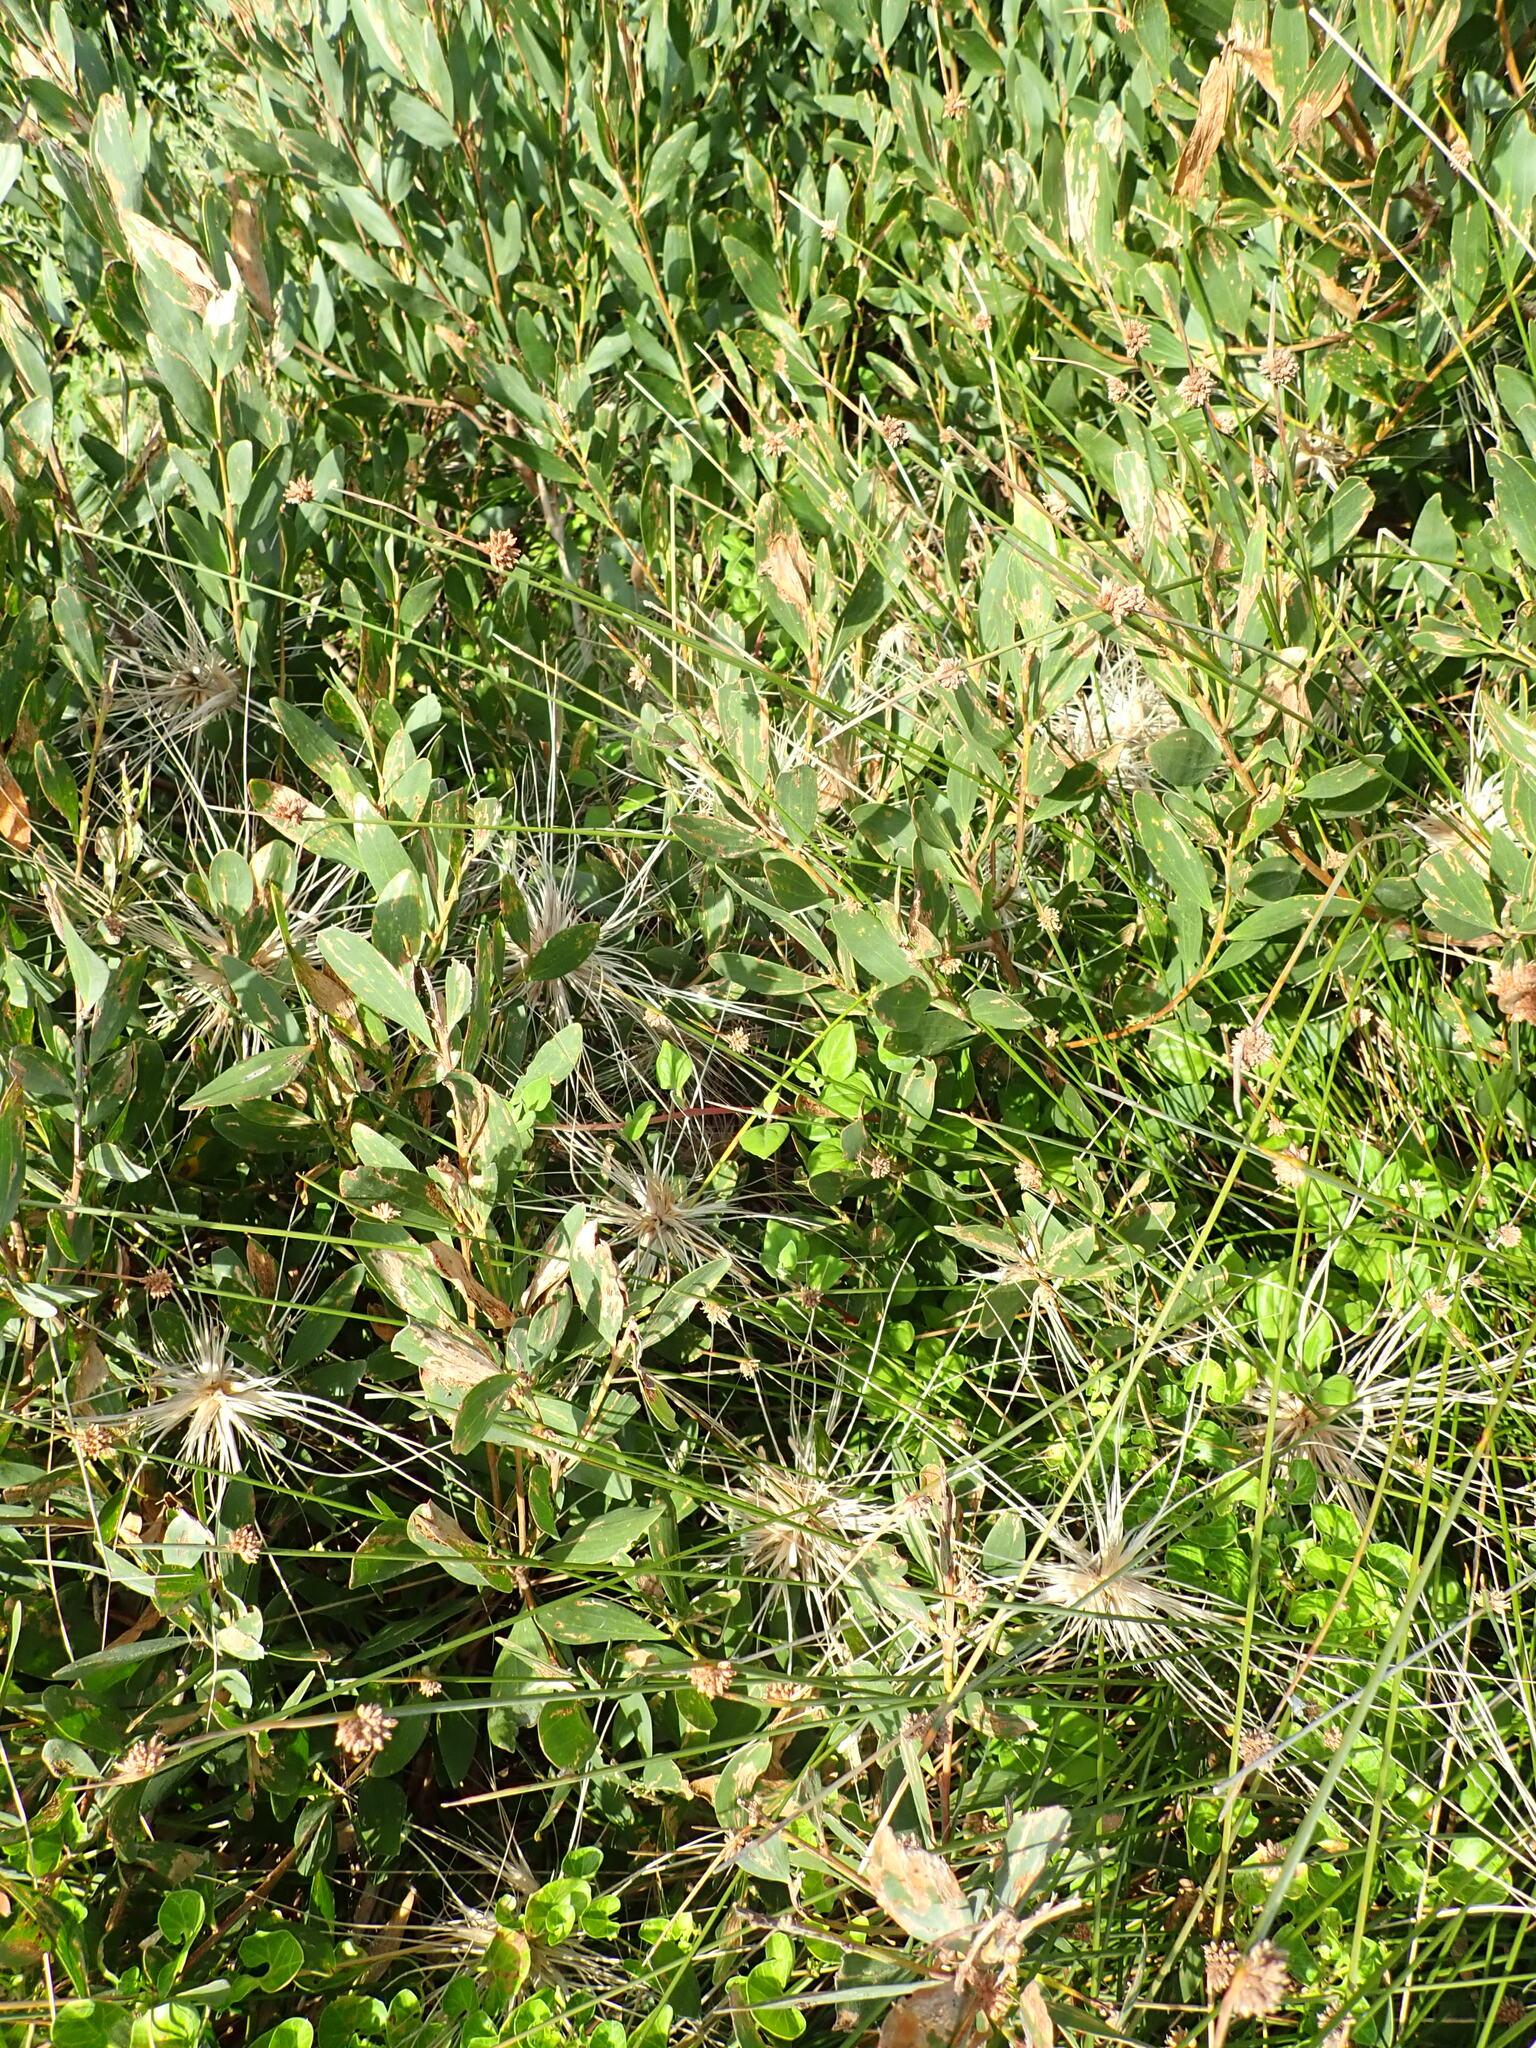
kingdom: Plantae
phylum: Tracheophyta
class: Magnoliopsida
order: Caryophyllales
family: Aizoaceae
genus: Tetragonia
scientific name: Tetragonia implexicoma
